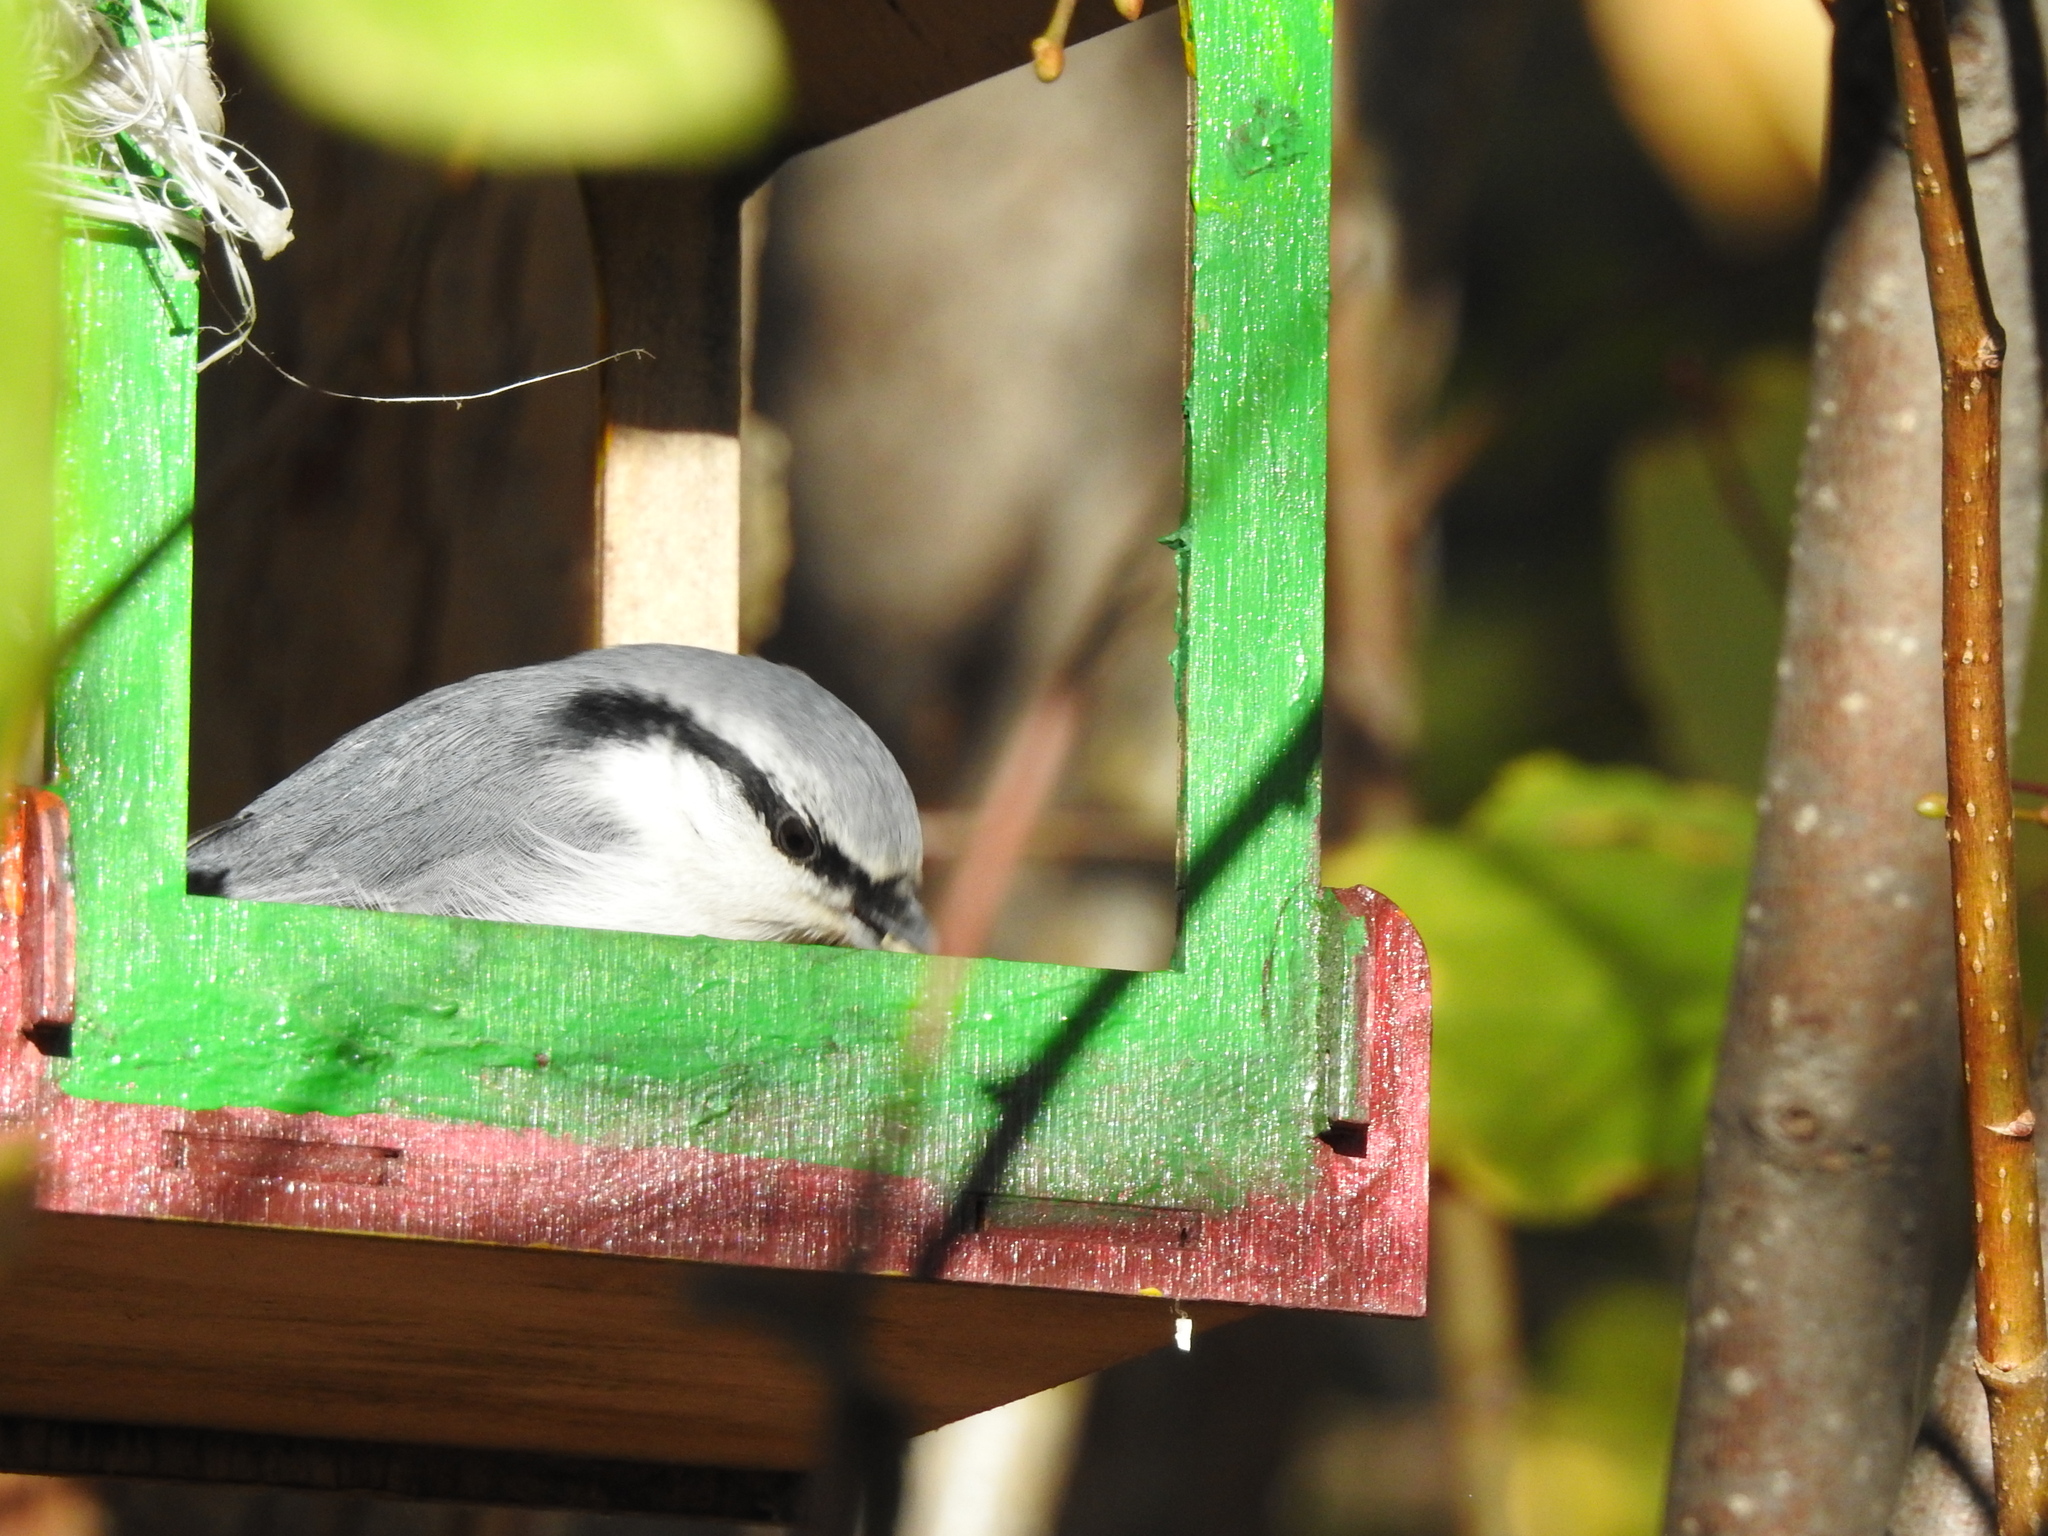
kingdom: Animalia
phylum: Chordata
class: Aves
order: Passeriformes
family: Sittidae
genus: Sitta
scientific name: Sitta europaea
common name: Eurasian nuthatch
